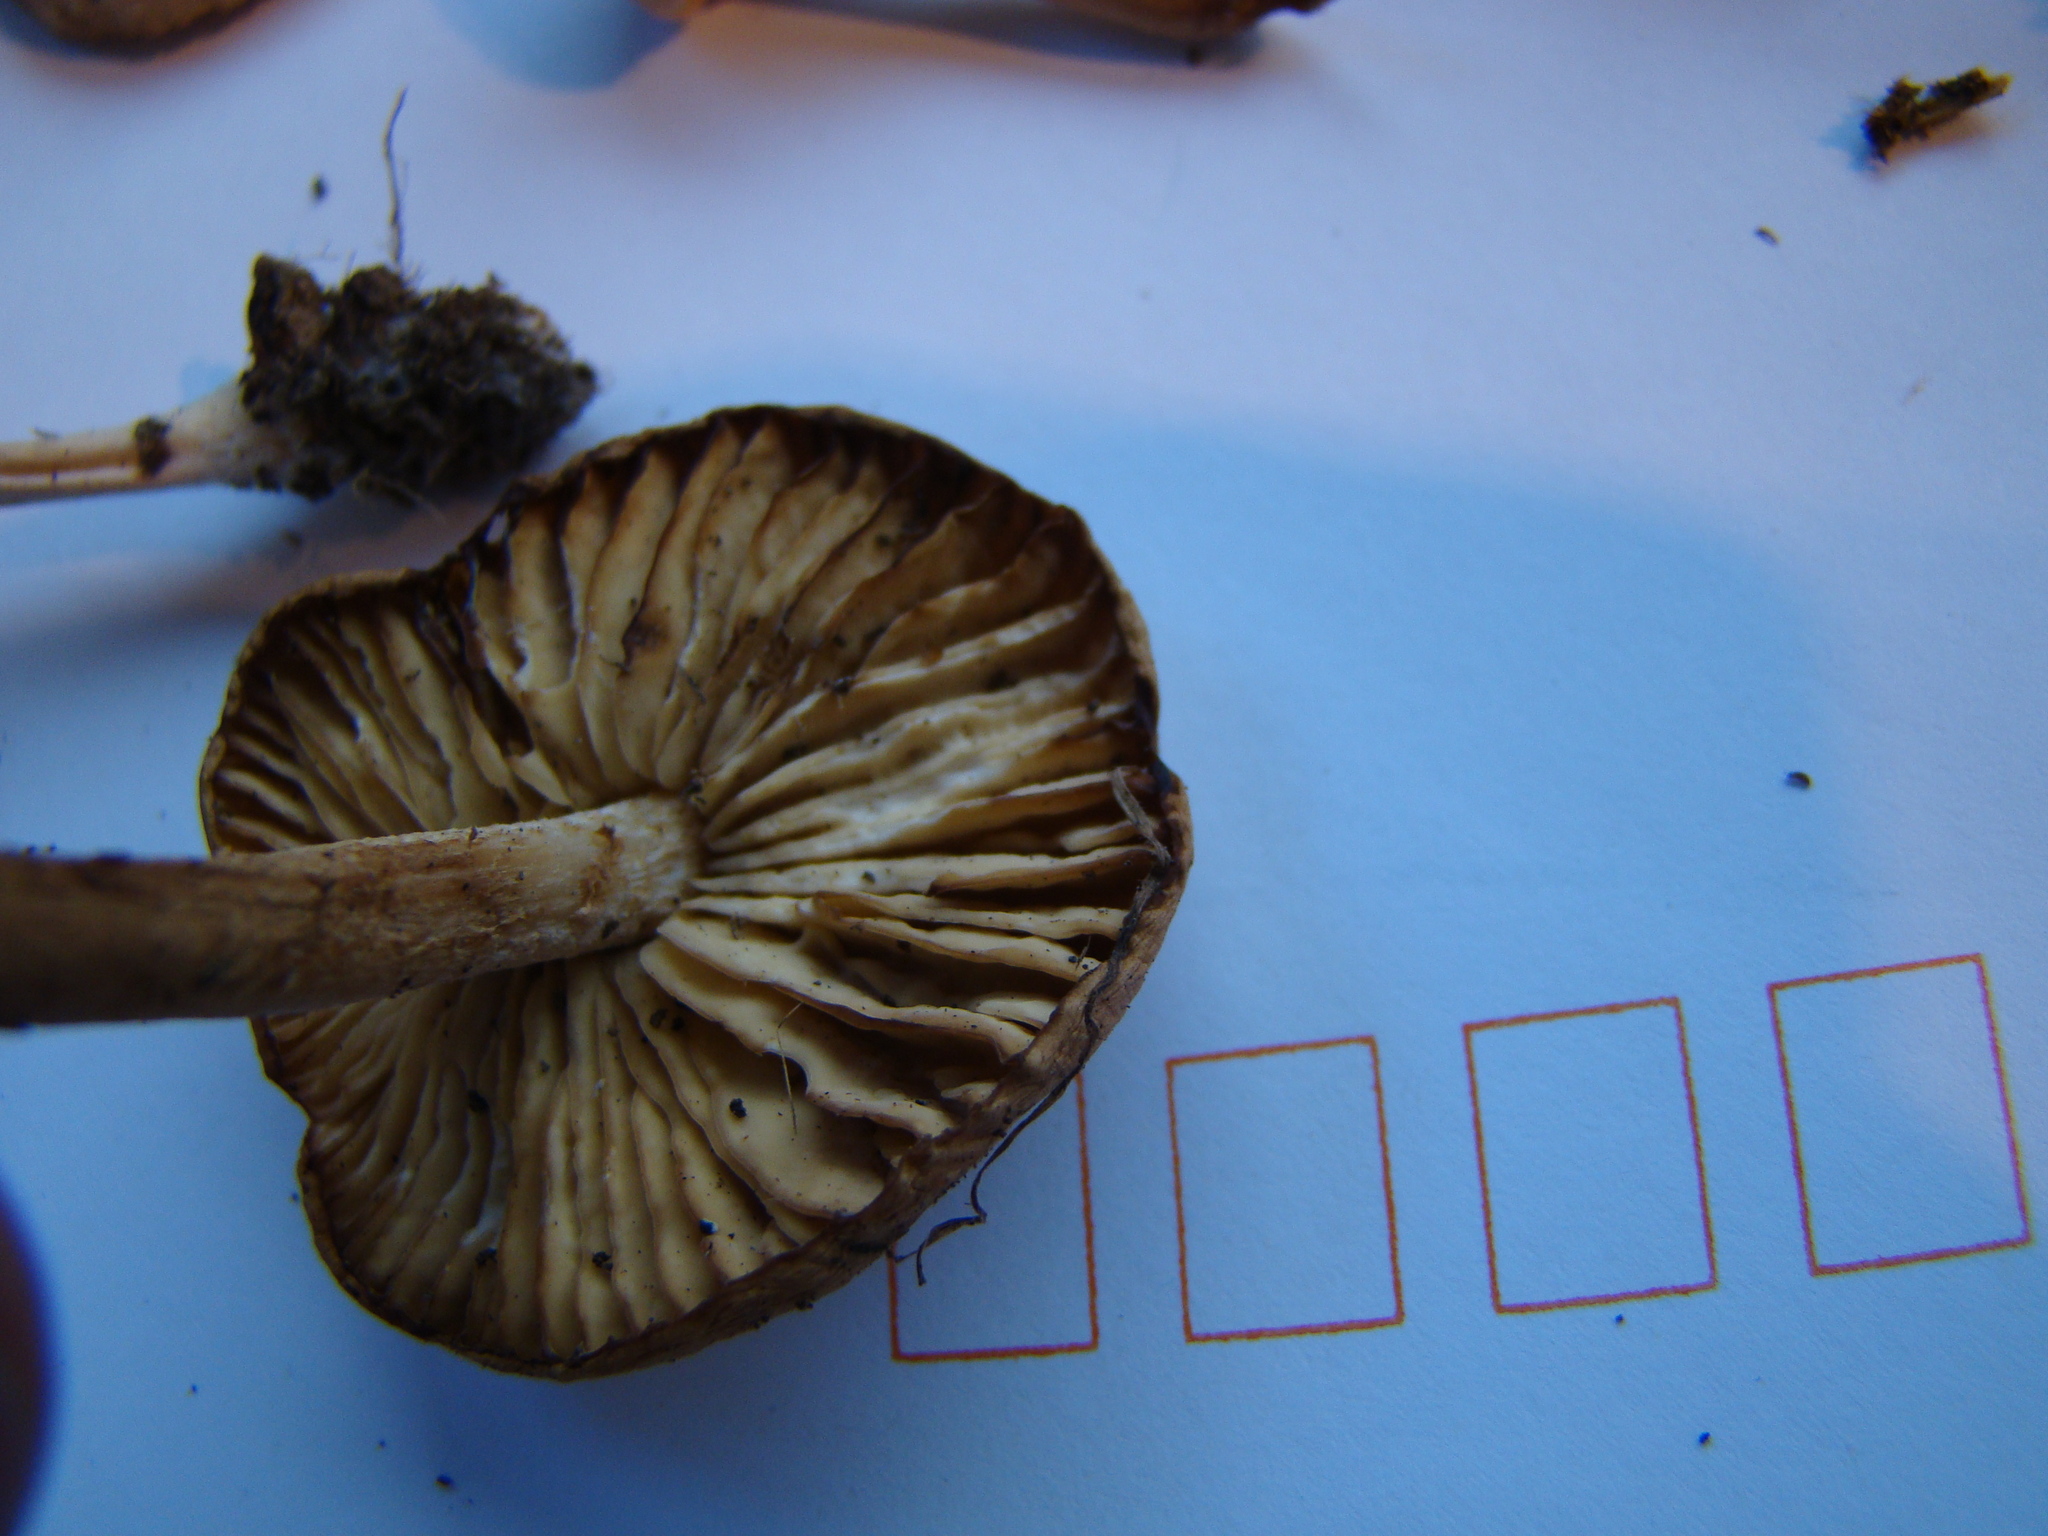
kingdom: Fungi
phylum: Basidiomycota
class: Agaricomycetes
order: Agaricales
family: Marasmiaceae
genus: Marasmius
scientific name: Marasmius oreades
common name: Fairy ring champignon
